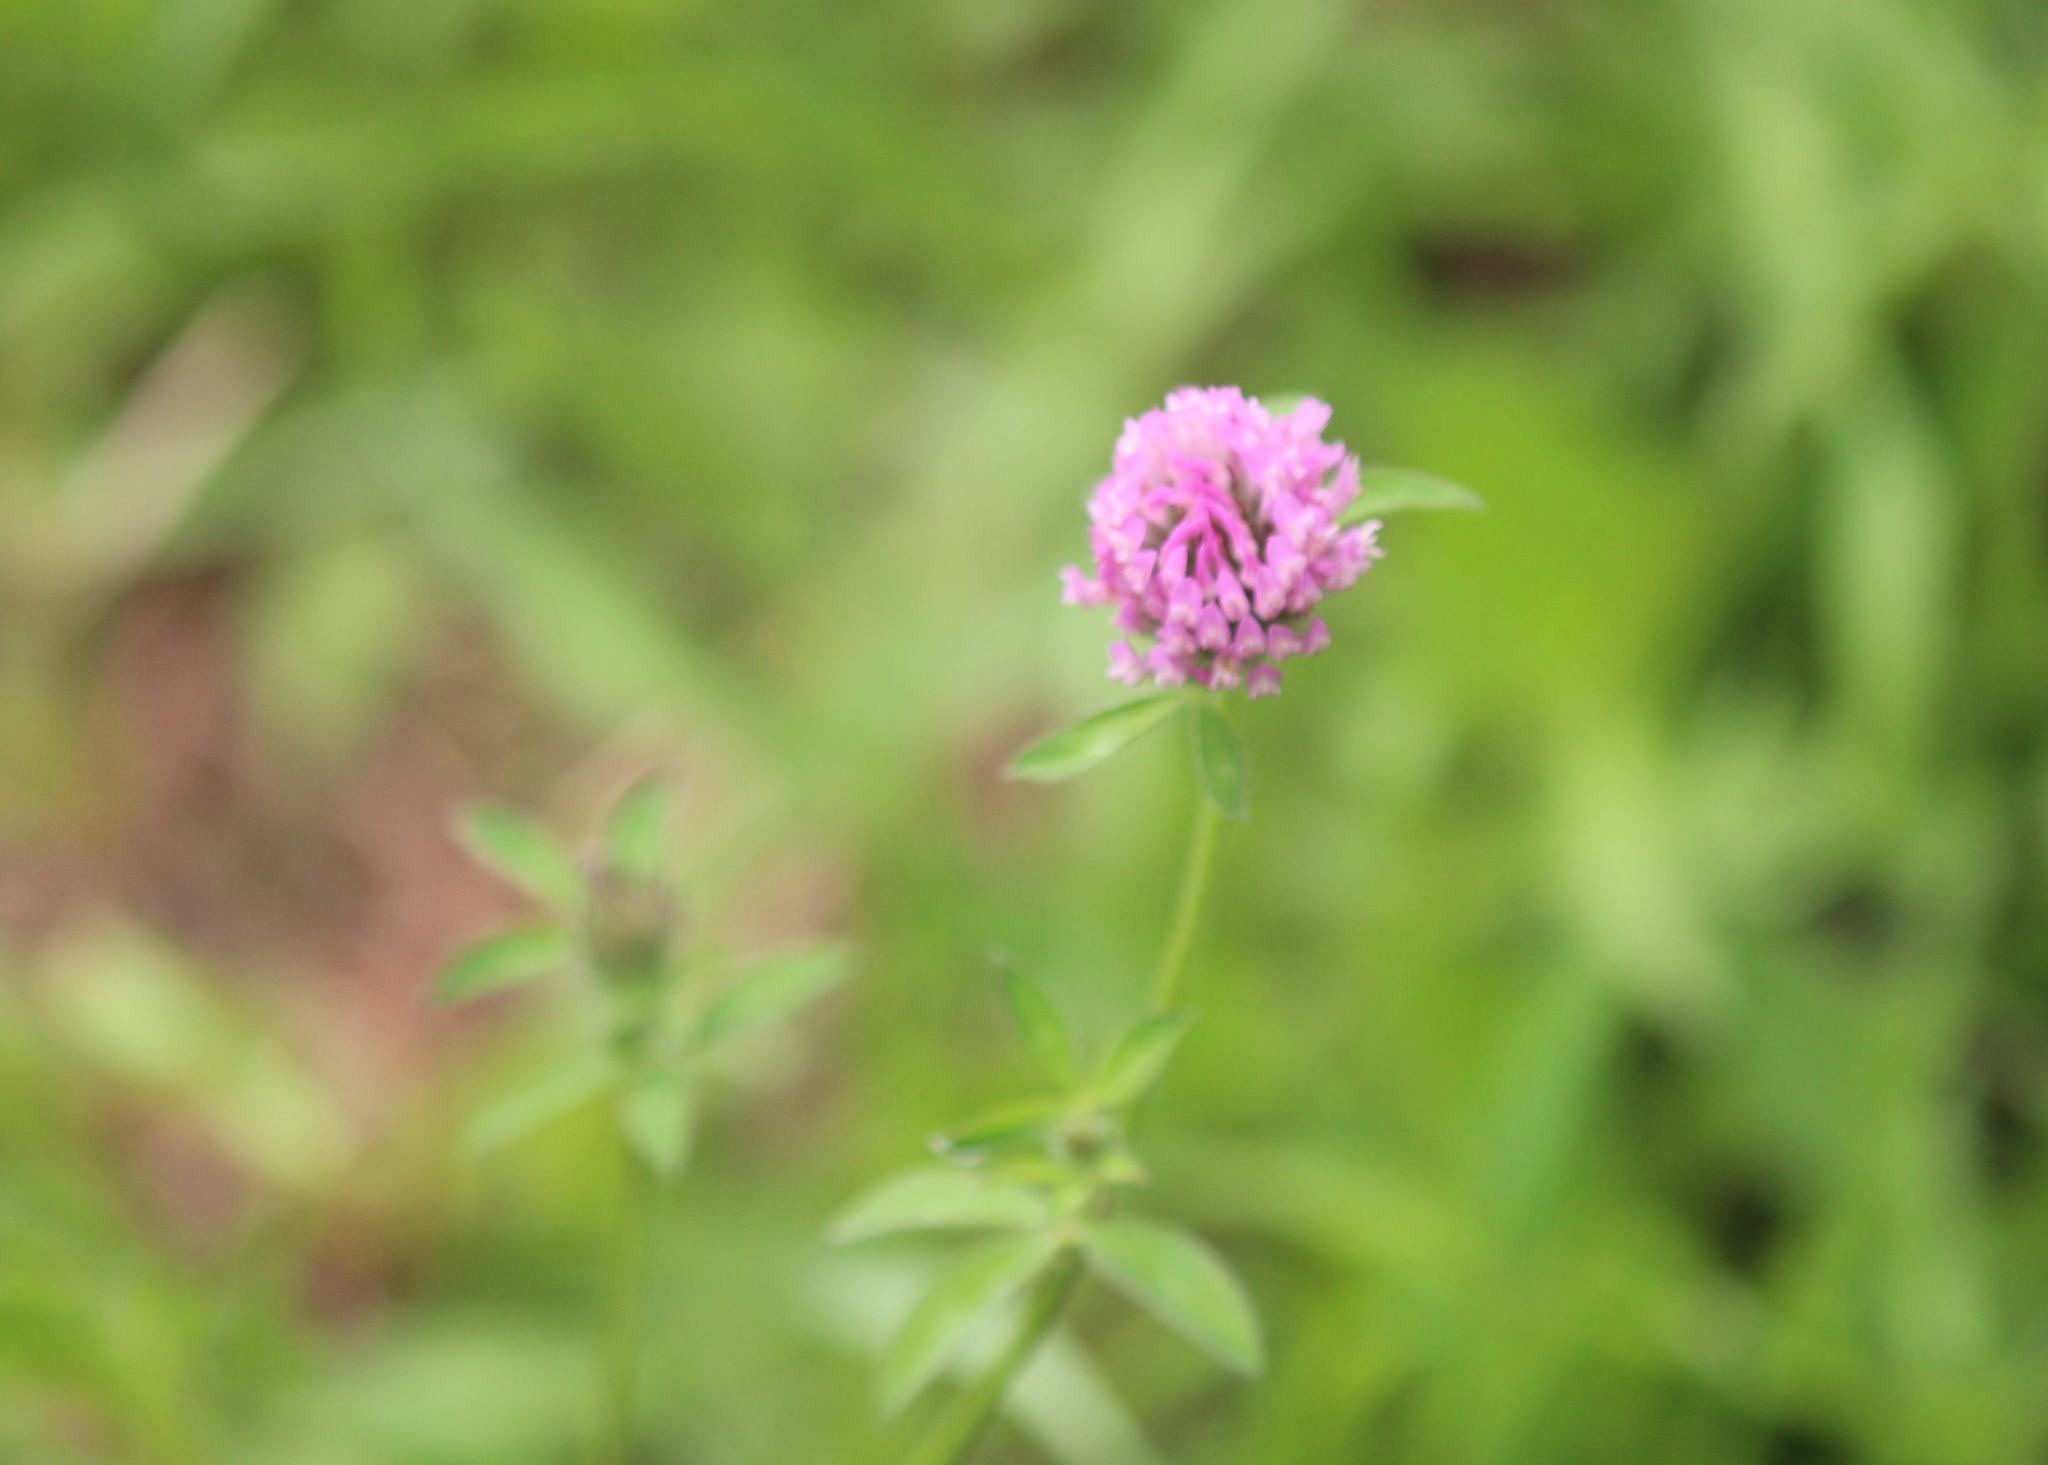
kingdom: Plantae
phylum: Tracheophyta
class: Magnoliopsida
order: Fabales
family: Fabaceae
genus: Trifolium
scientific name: Trifolium pratense
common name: Red clover
